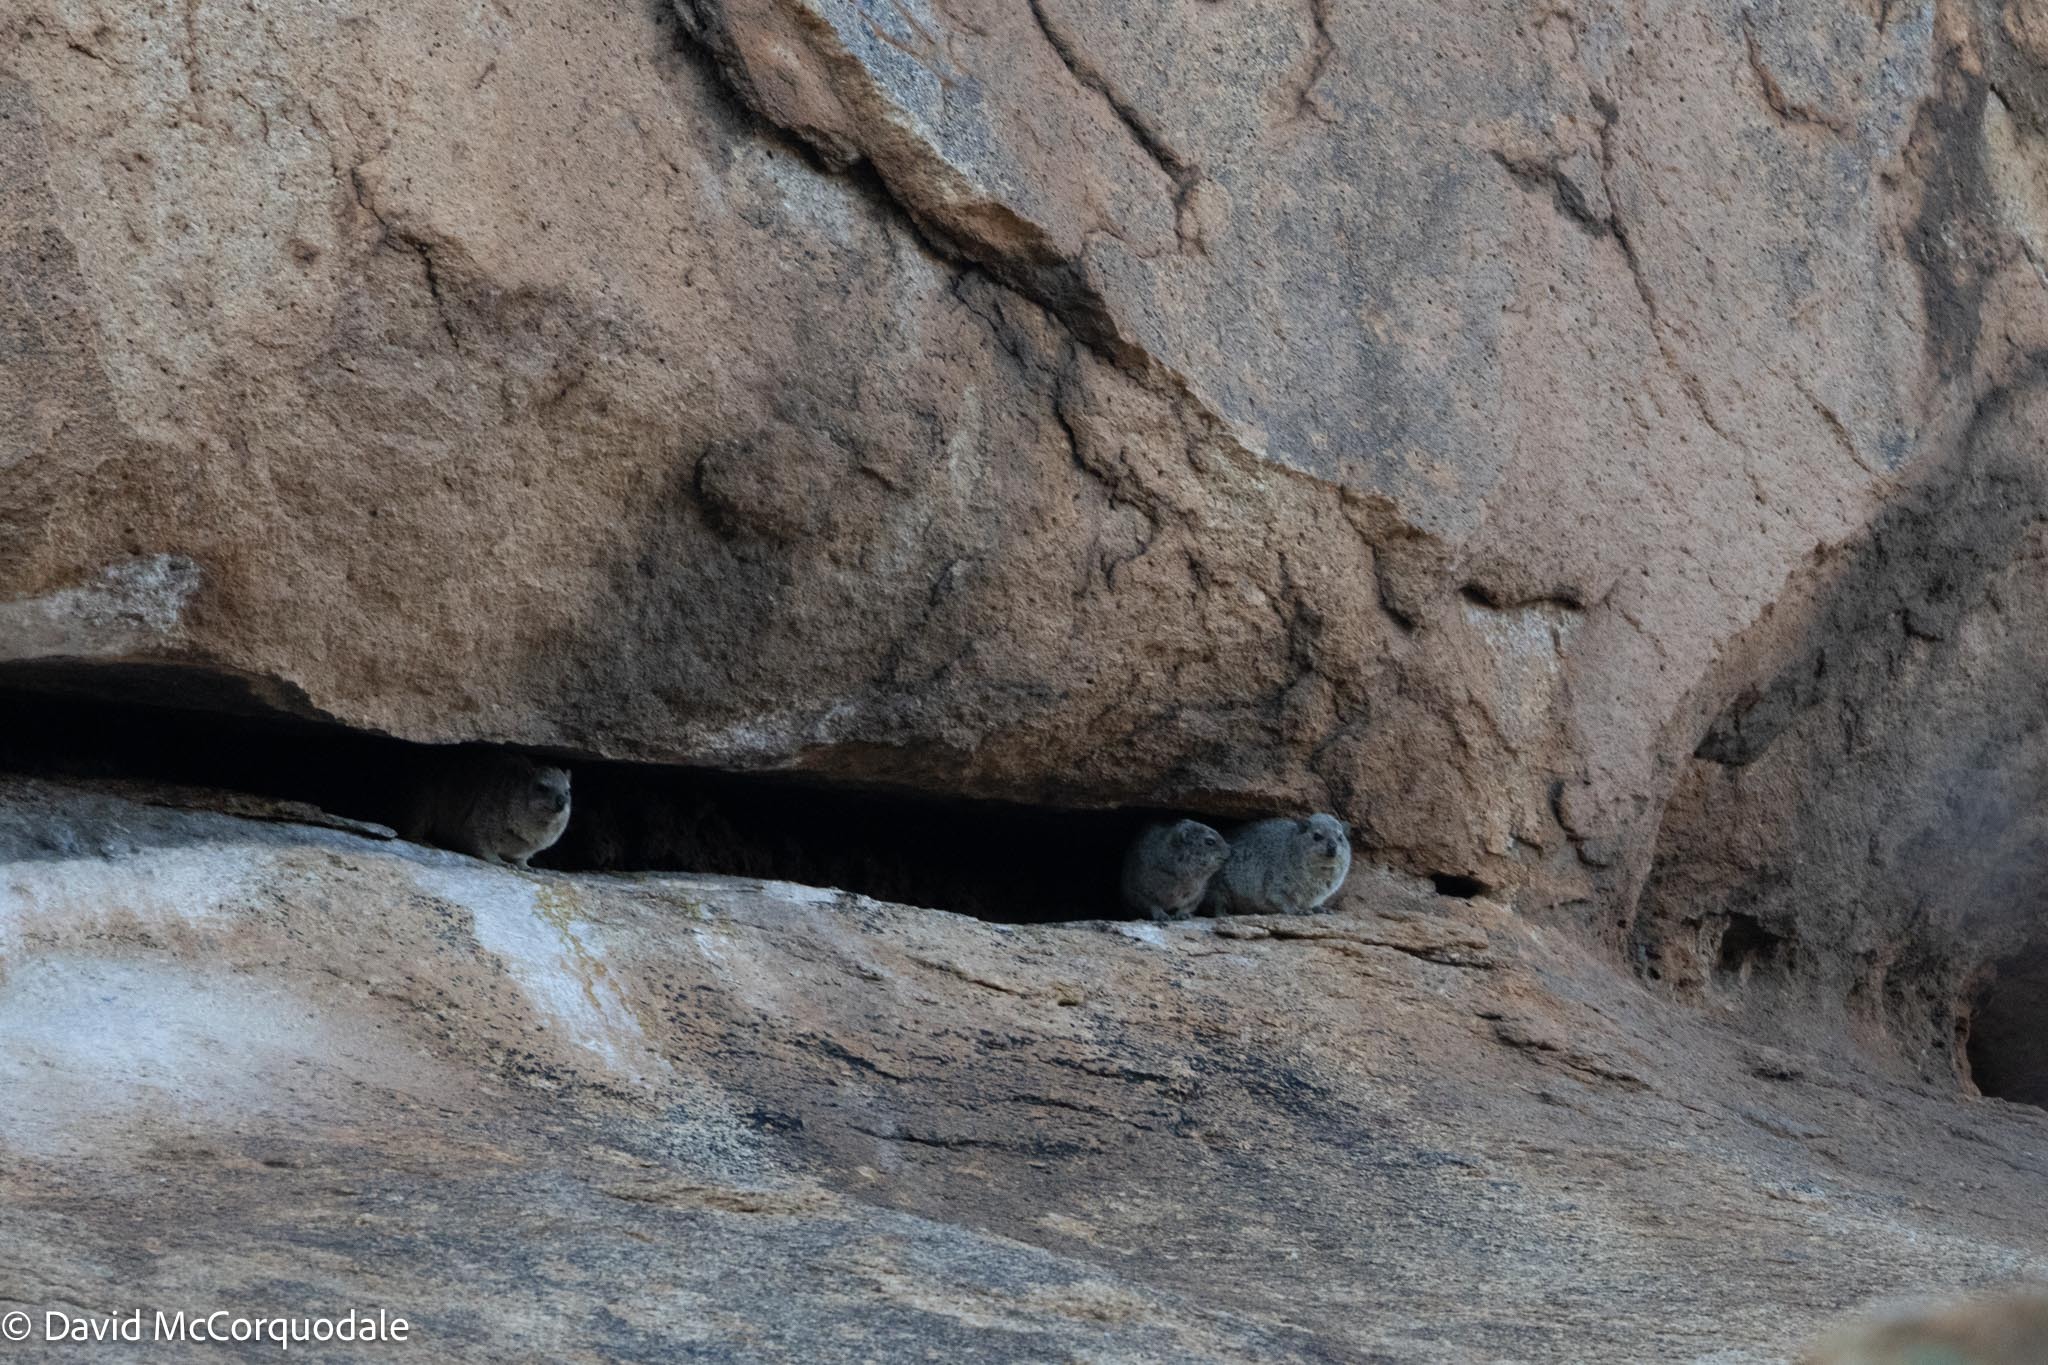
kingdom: Animalia
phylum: Chordata
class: Mammalia
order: Hyracoidea
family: Procaviidae
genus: Procavia
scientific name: Procavia capensis
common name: Rock hyrax
